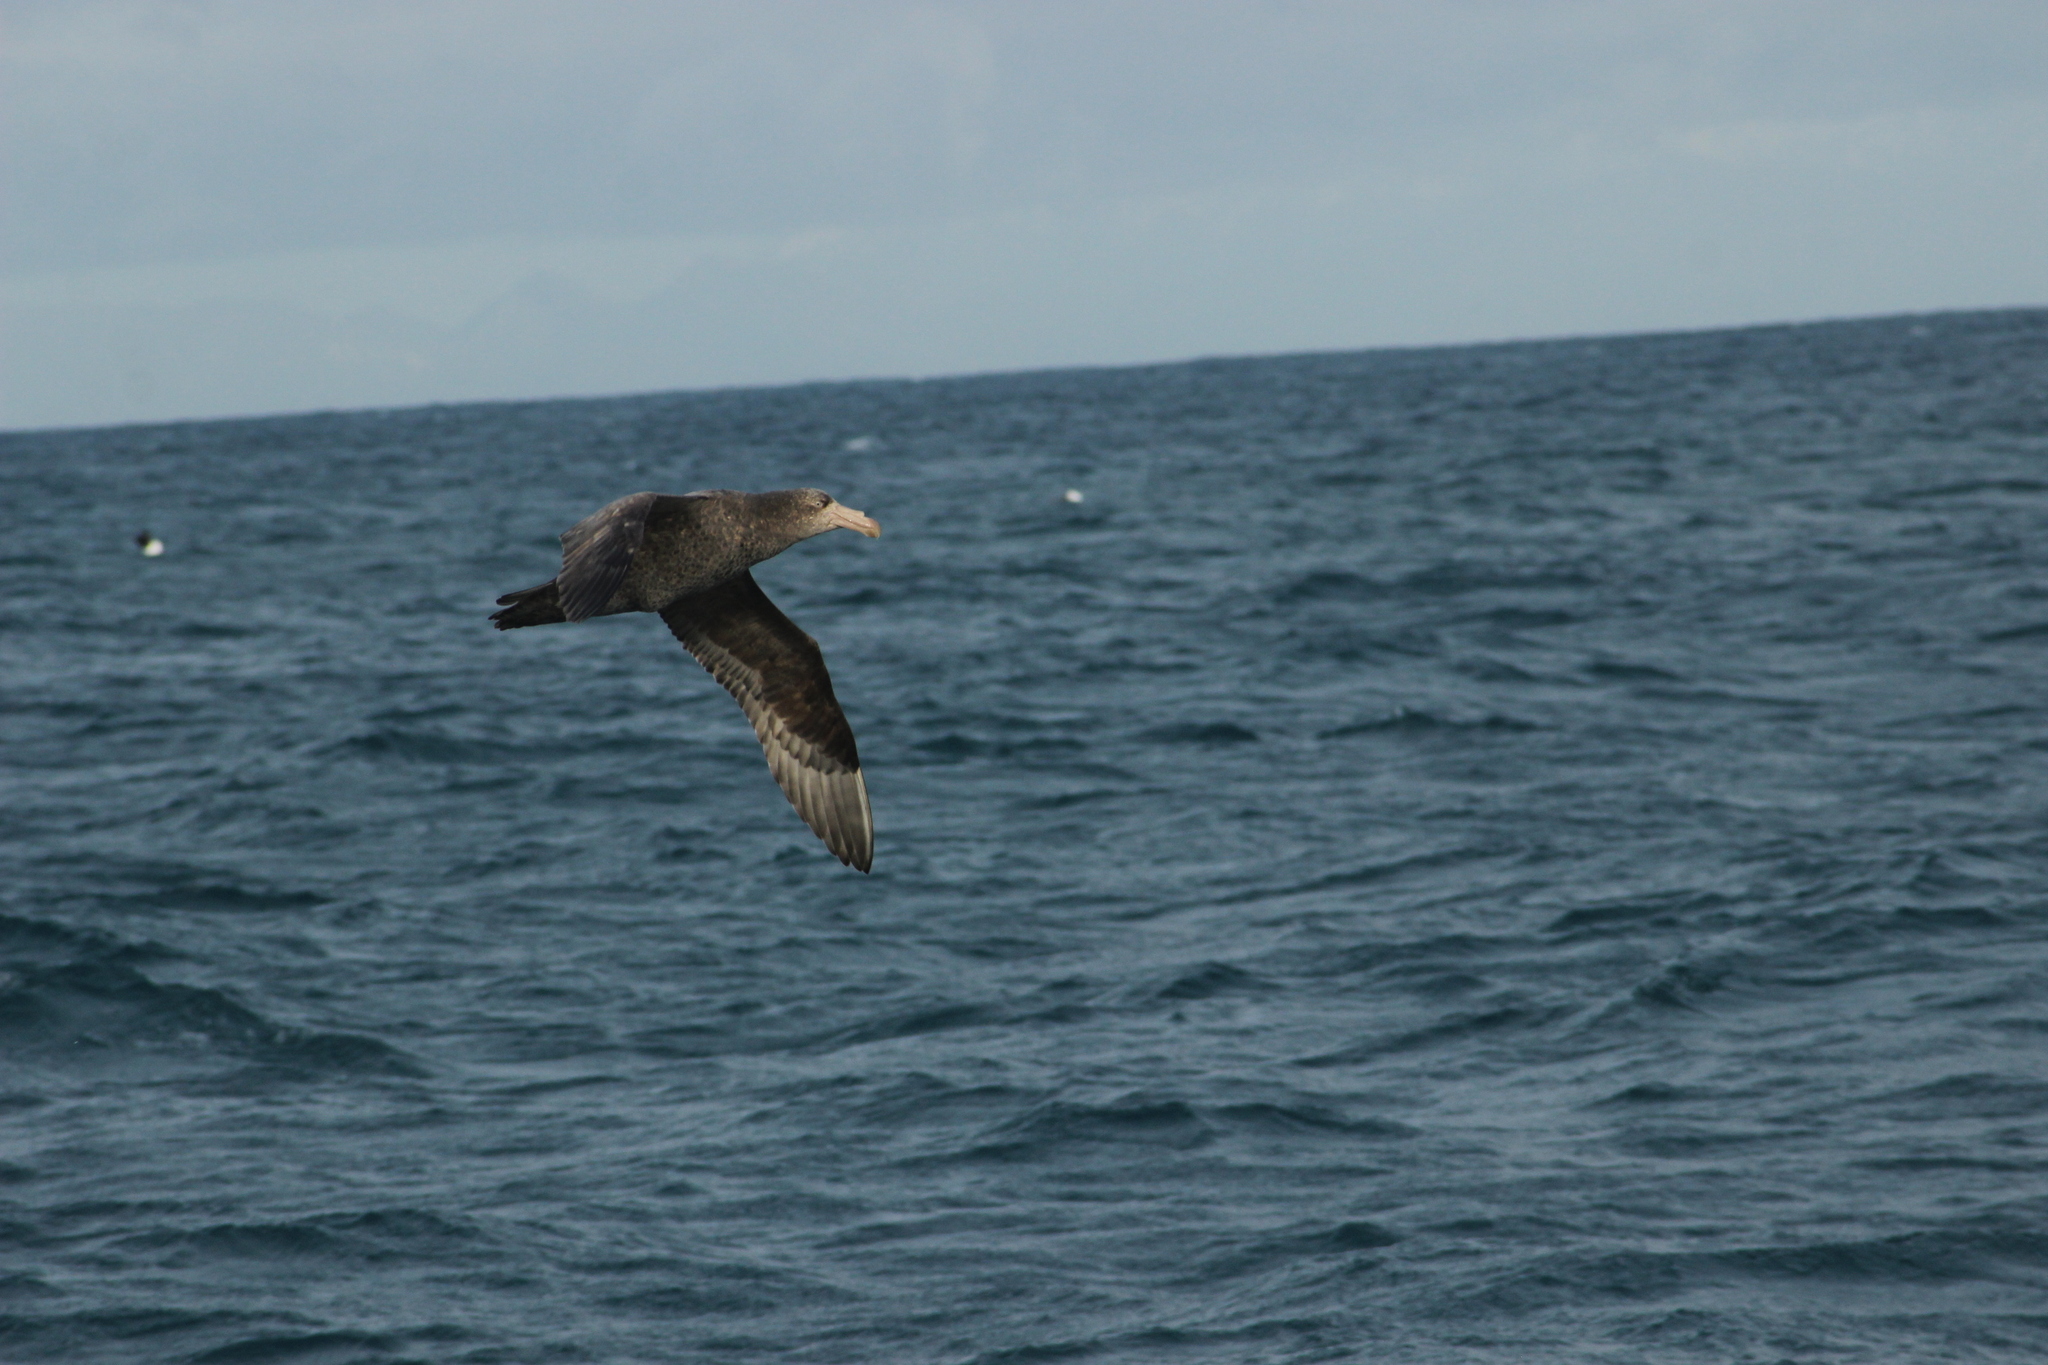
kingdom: Animalia
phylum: Chordata
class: Aves
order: Procellariiformes
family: Procellariidae
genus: Macronectes
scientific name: Macronectes halli
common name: Northern giant petrel
